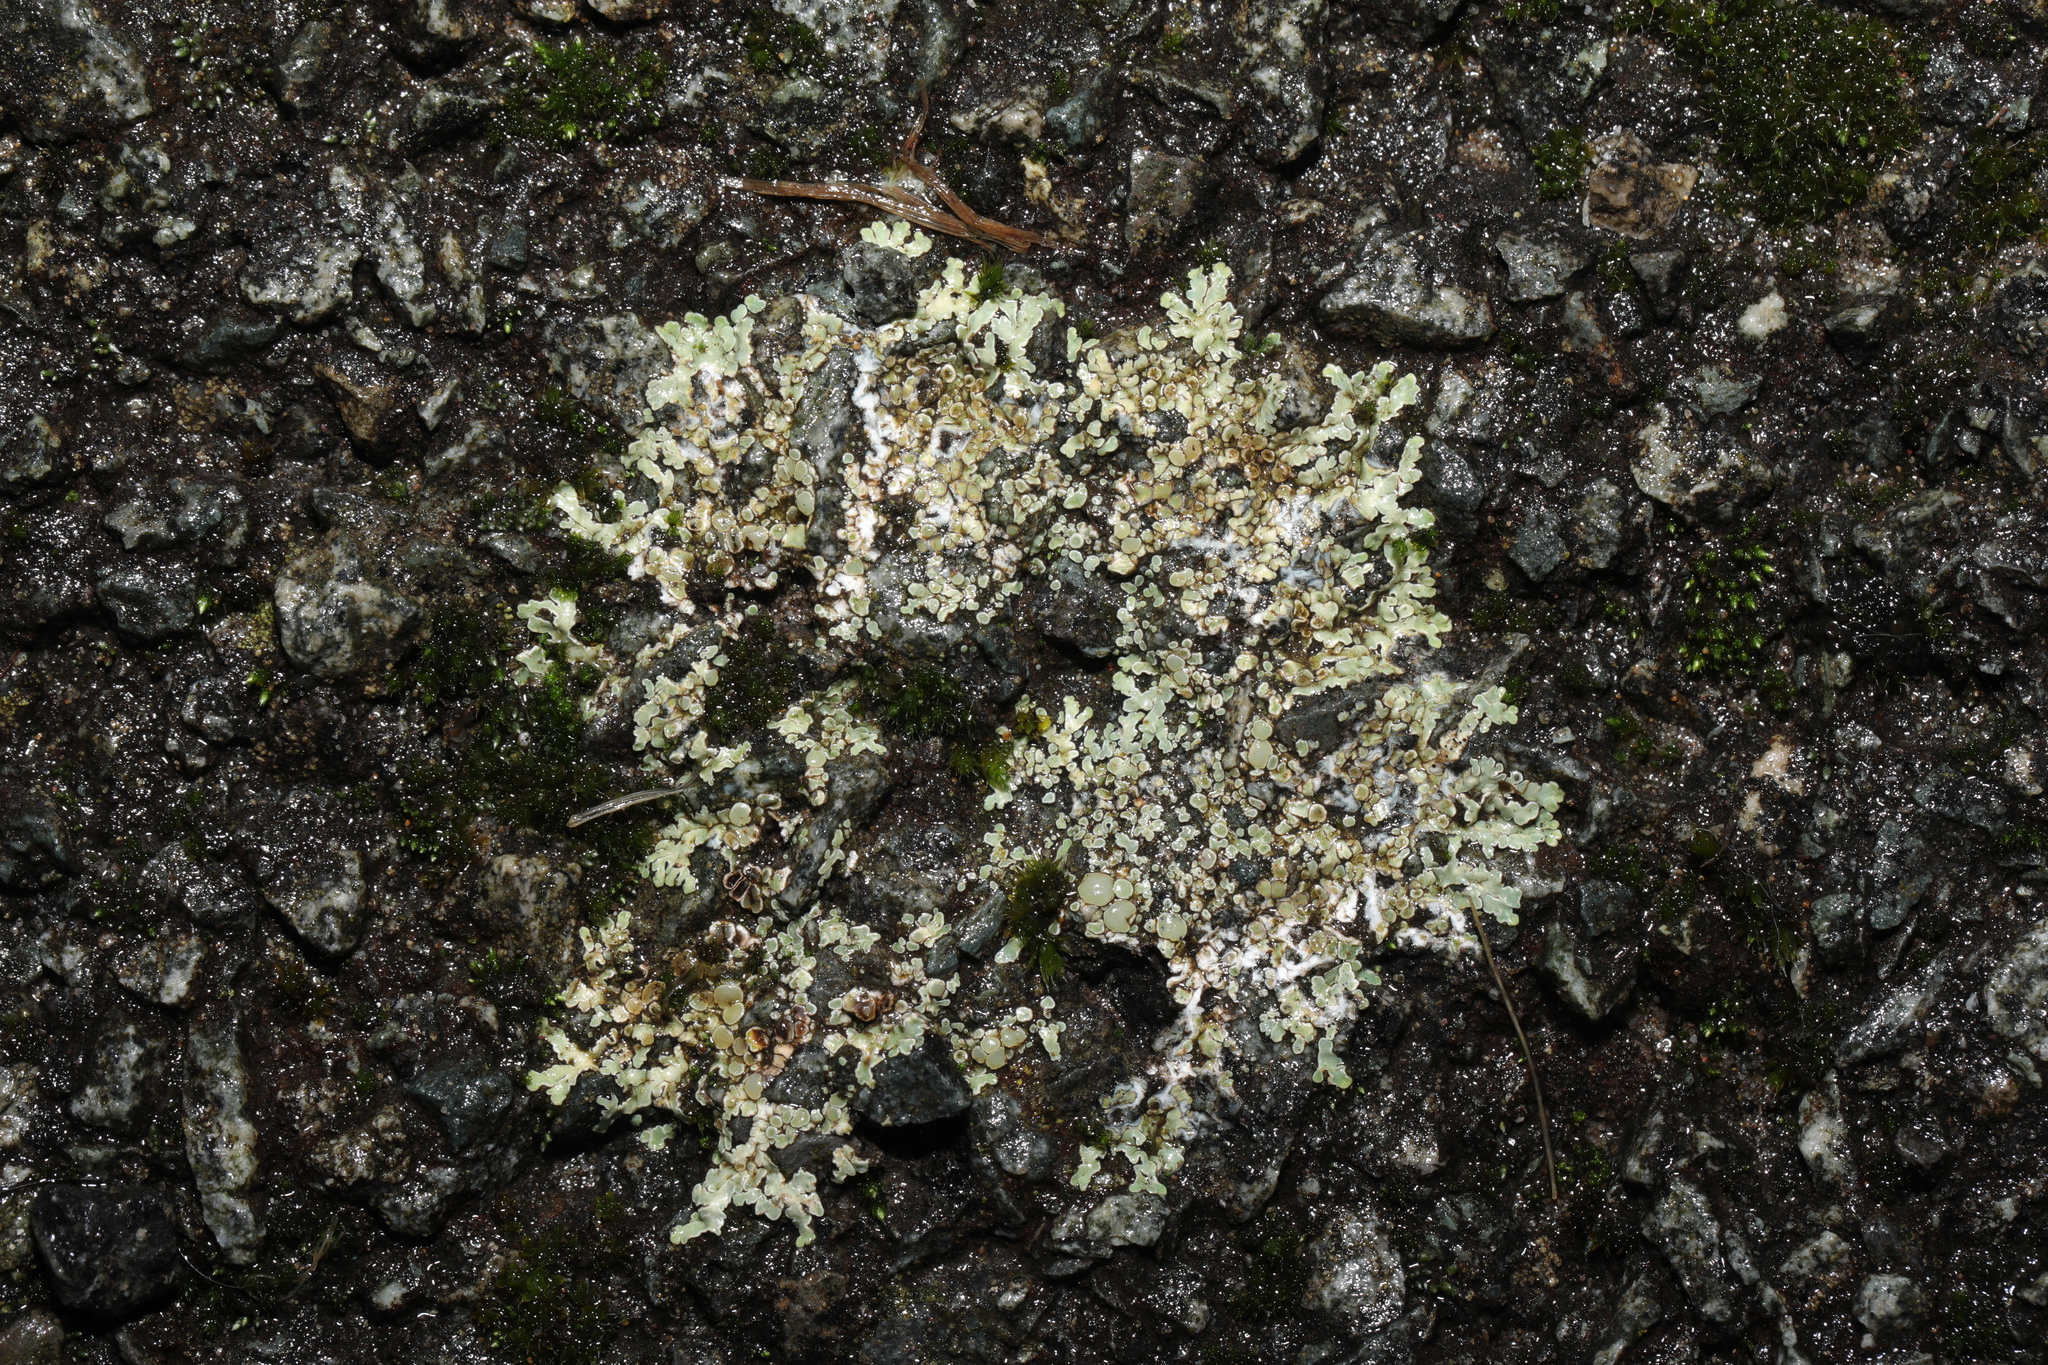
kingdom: Fungi
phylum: Ascomycota
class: Lecanoromycetes
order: Lecanorales
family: Lecanoraceae
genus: Protoparmeliopsis
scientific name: Protoparmeliopsis muralis
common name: Stonewall rim lichen
